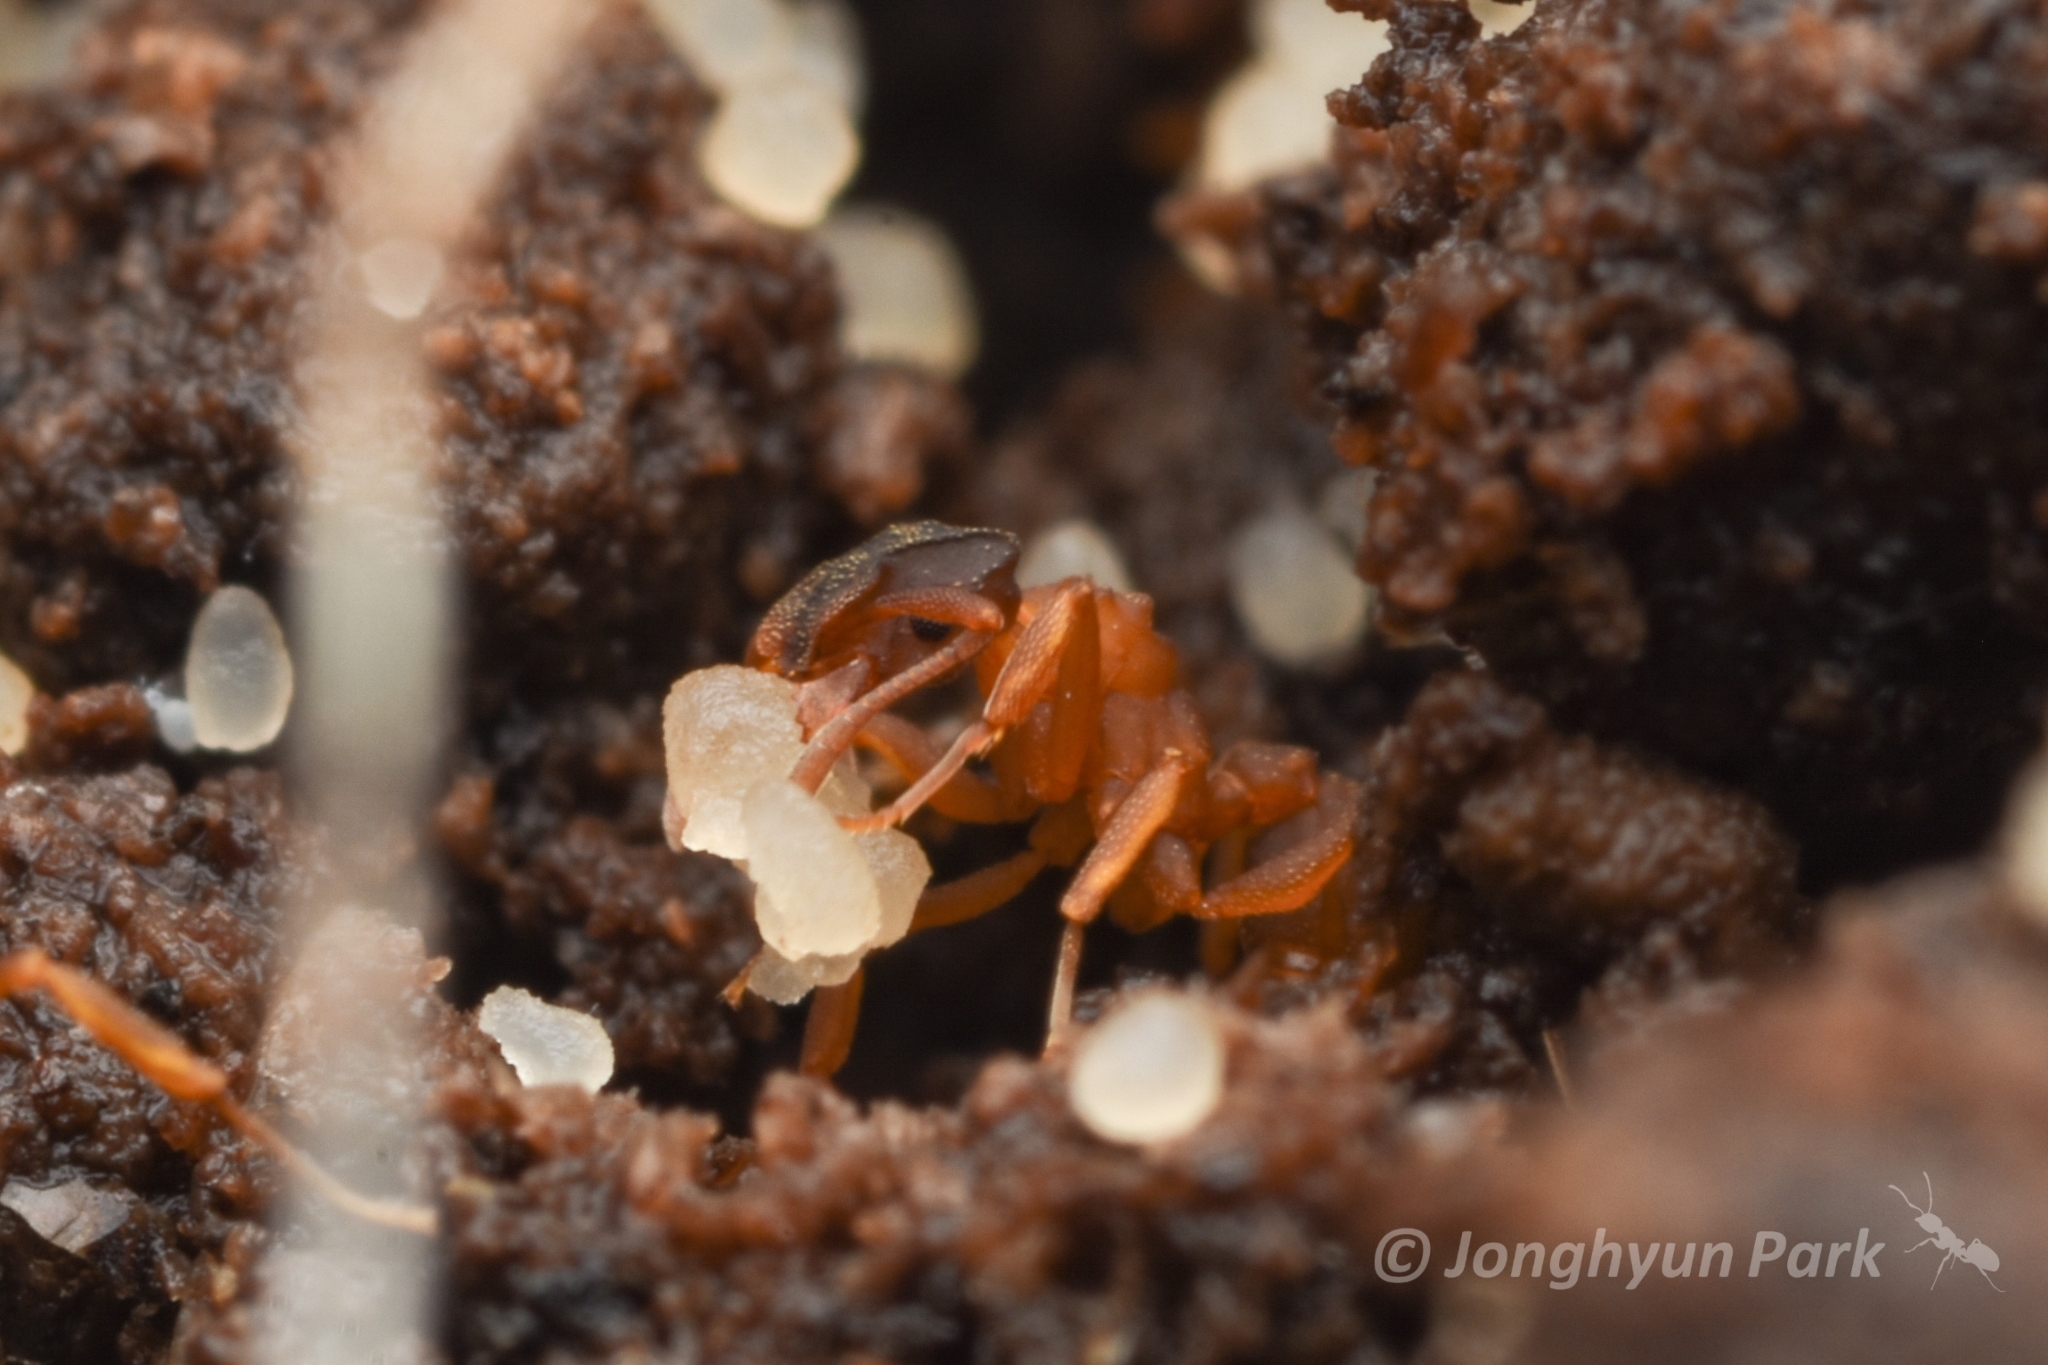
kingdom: Animalia
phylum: Arthropoda
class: Insecta
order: Hymenoptera
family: Formicidae
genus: Cyphomyrmex
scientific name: Cyphomyrmex rimosus
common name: Rimose fungus ant
